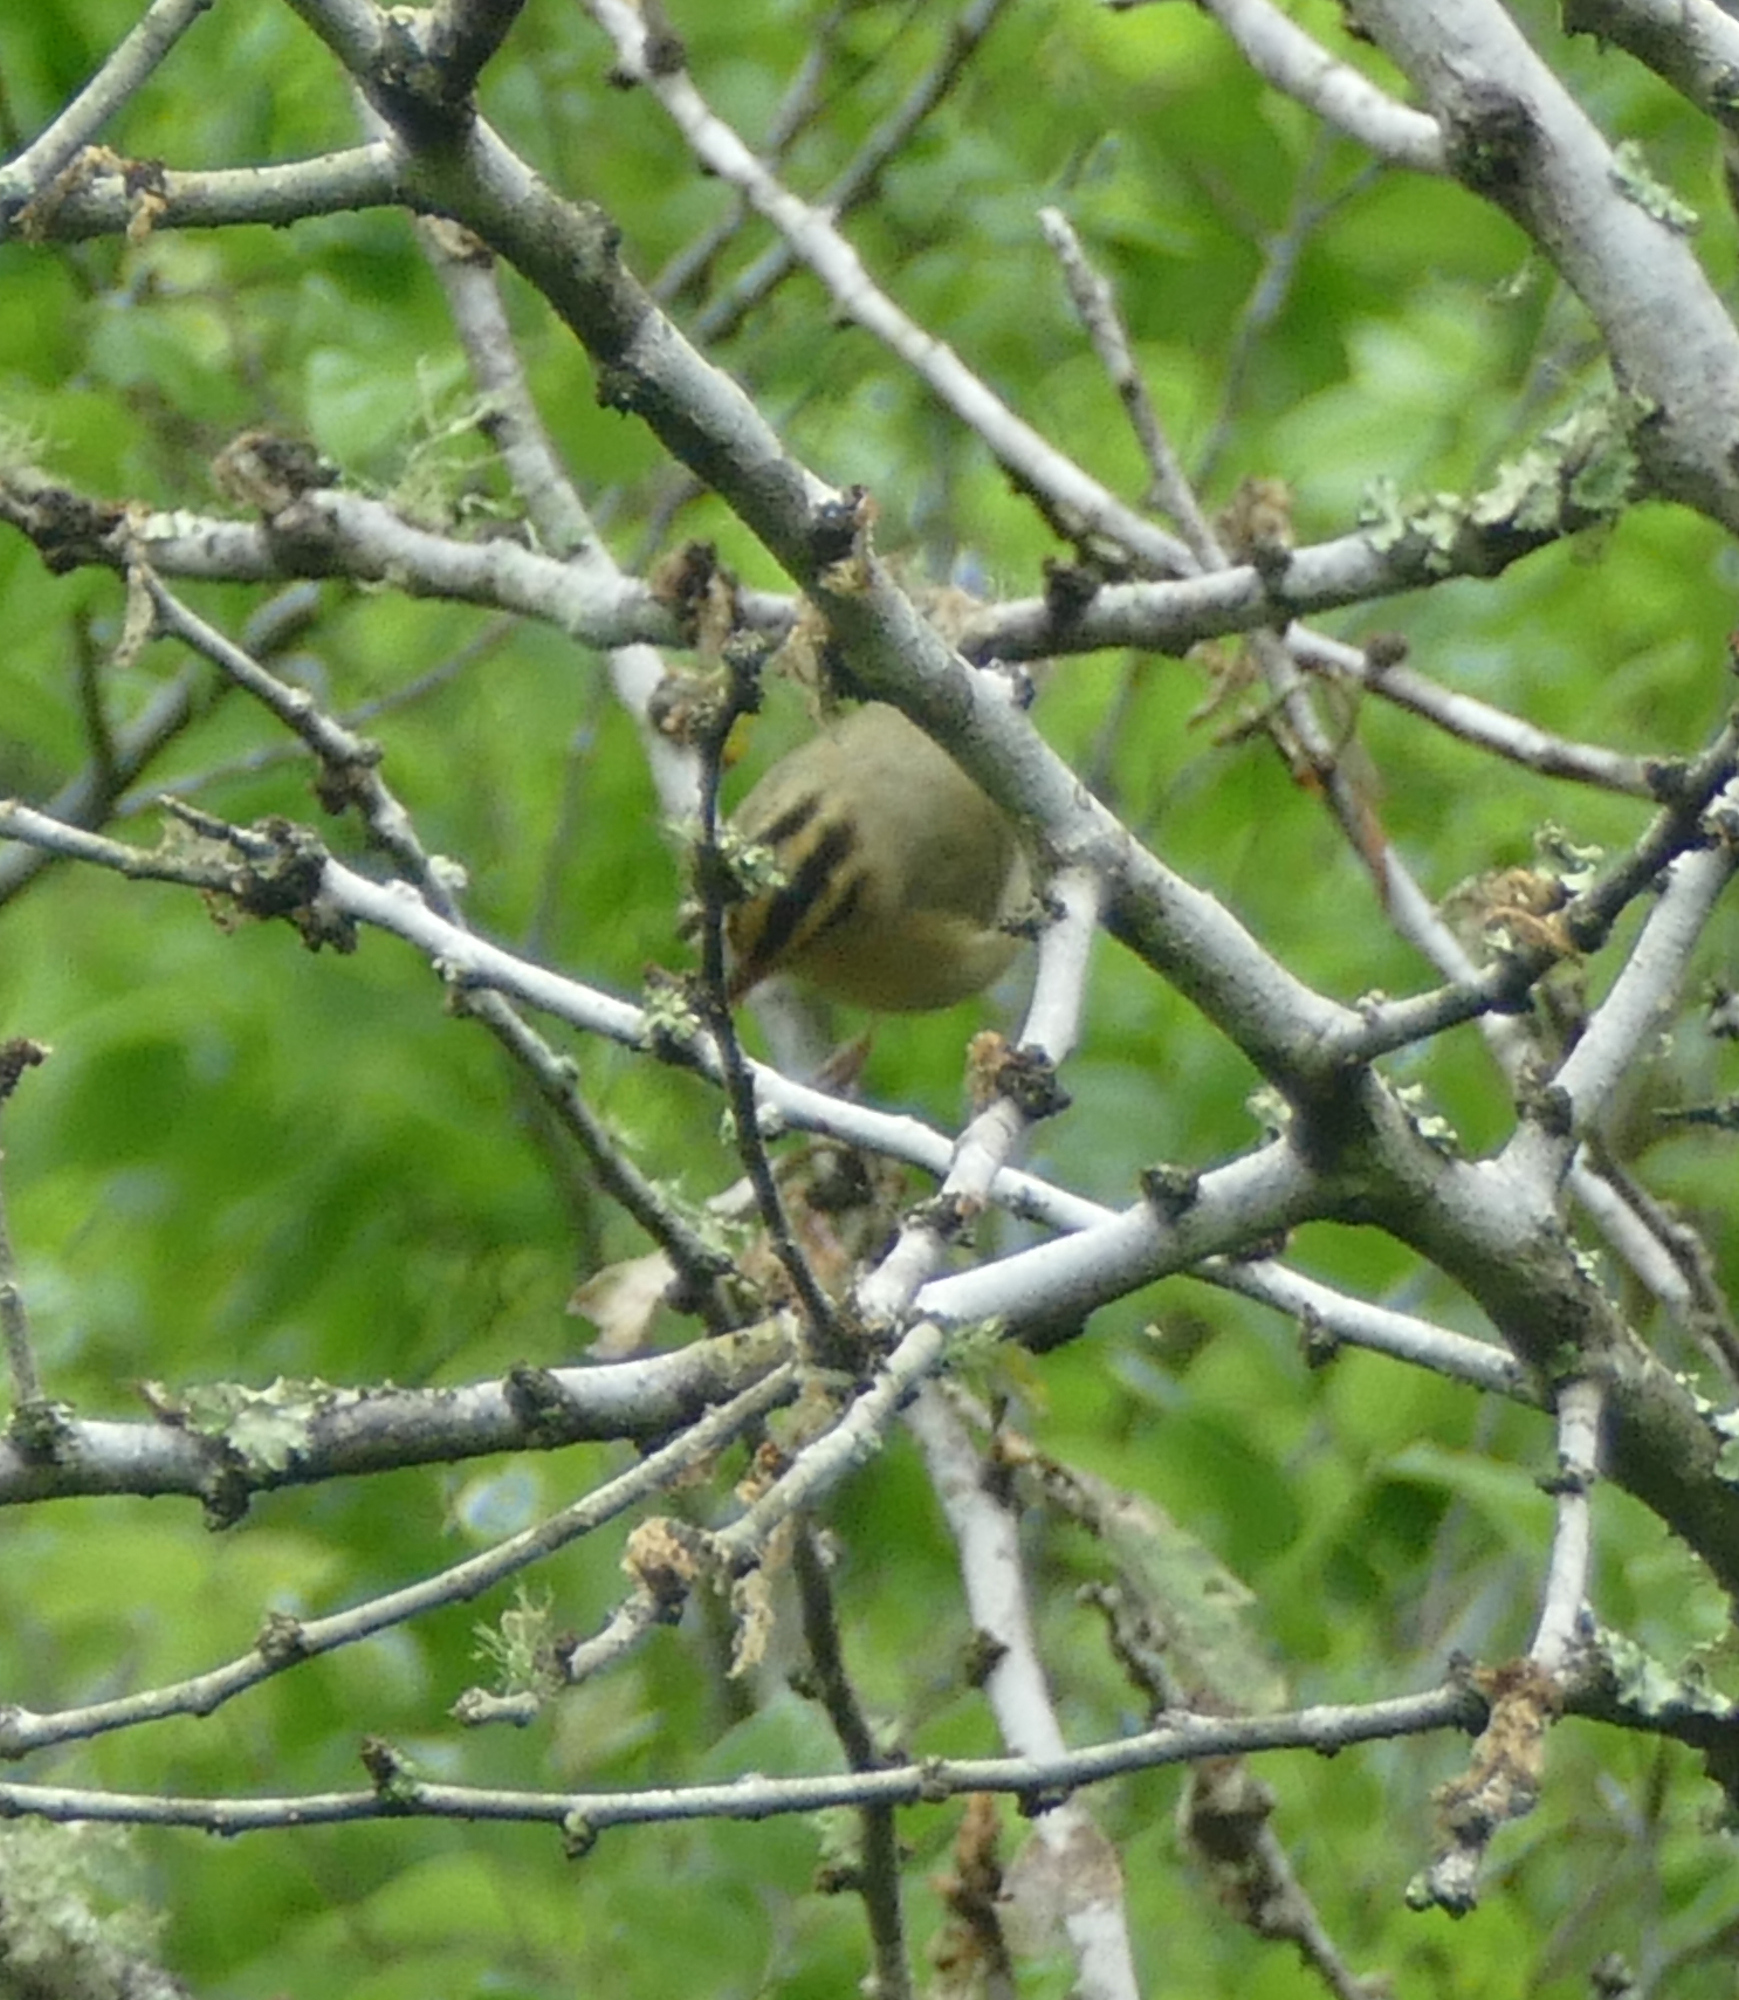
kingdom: Animalia
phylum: Chordata
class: Aves
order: Passeriformes
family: Parulidae
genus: Helmitheros
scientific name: Helmitheros vermivorum
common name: Worm-eating warbler
